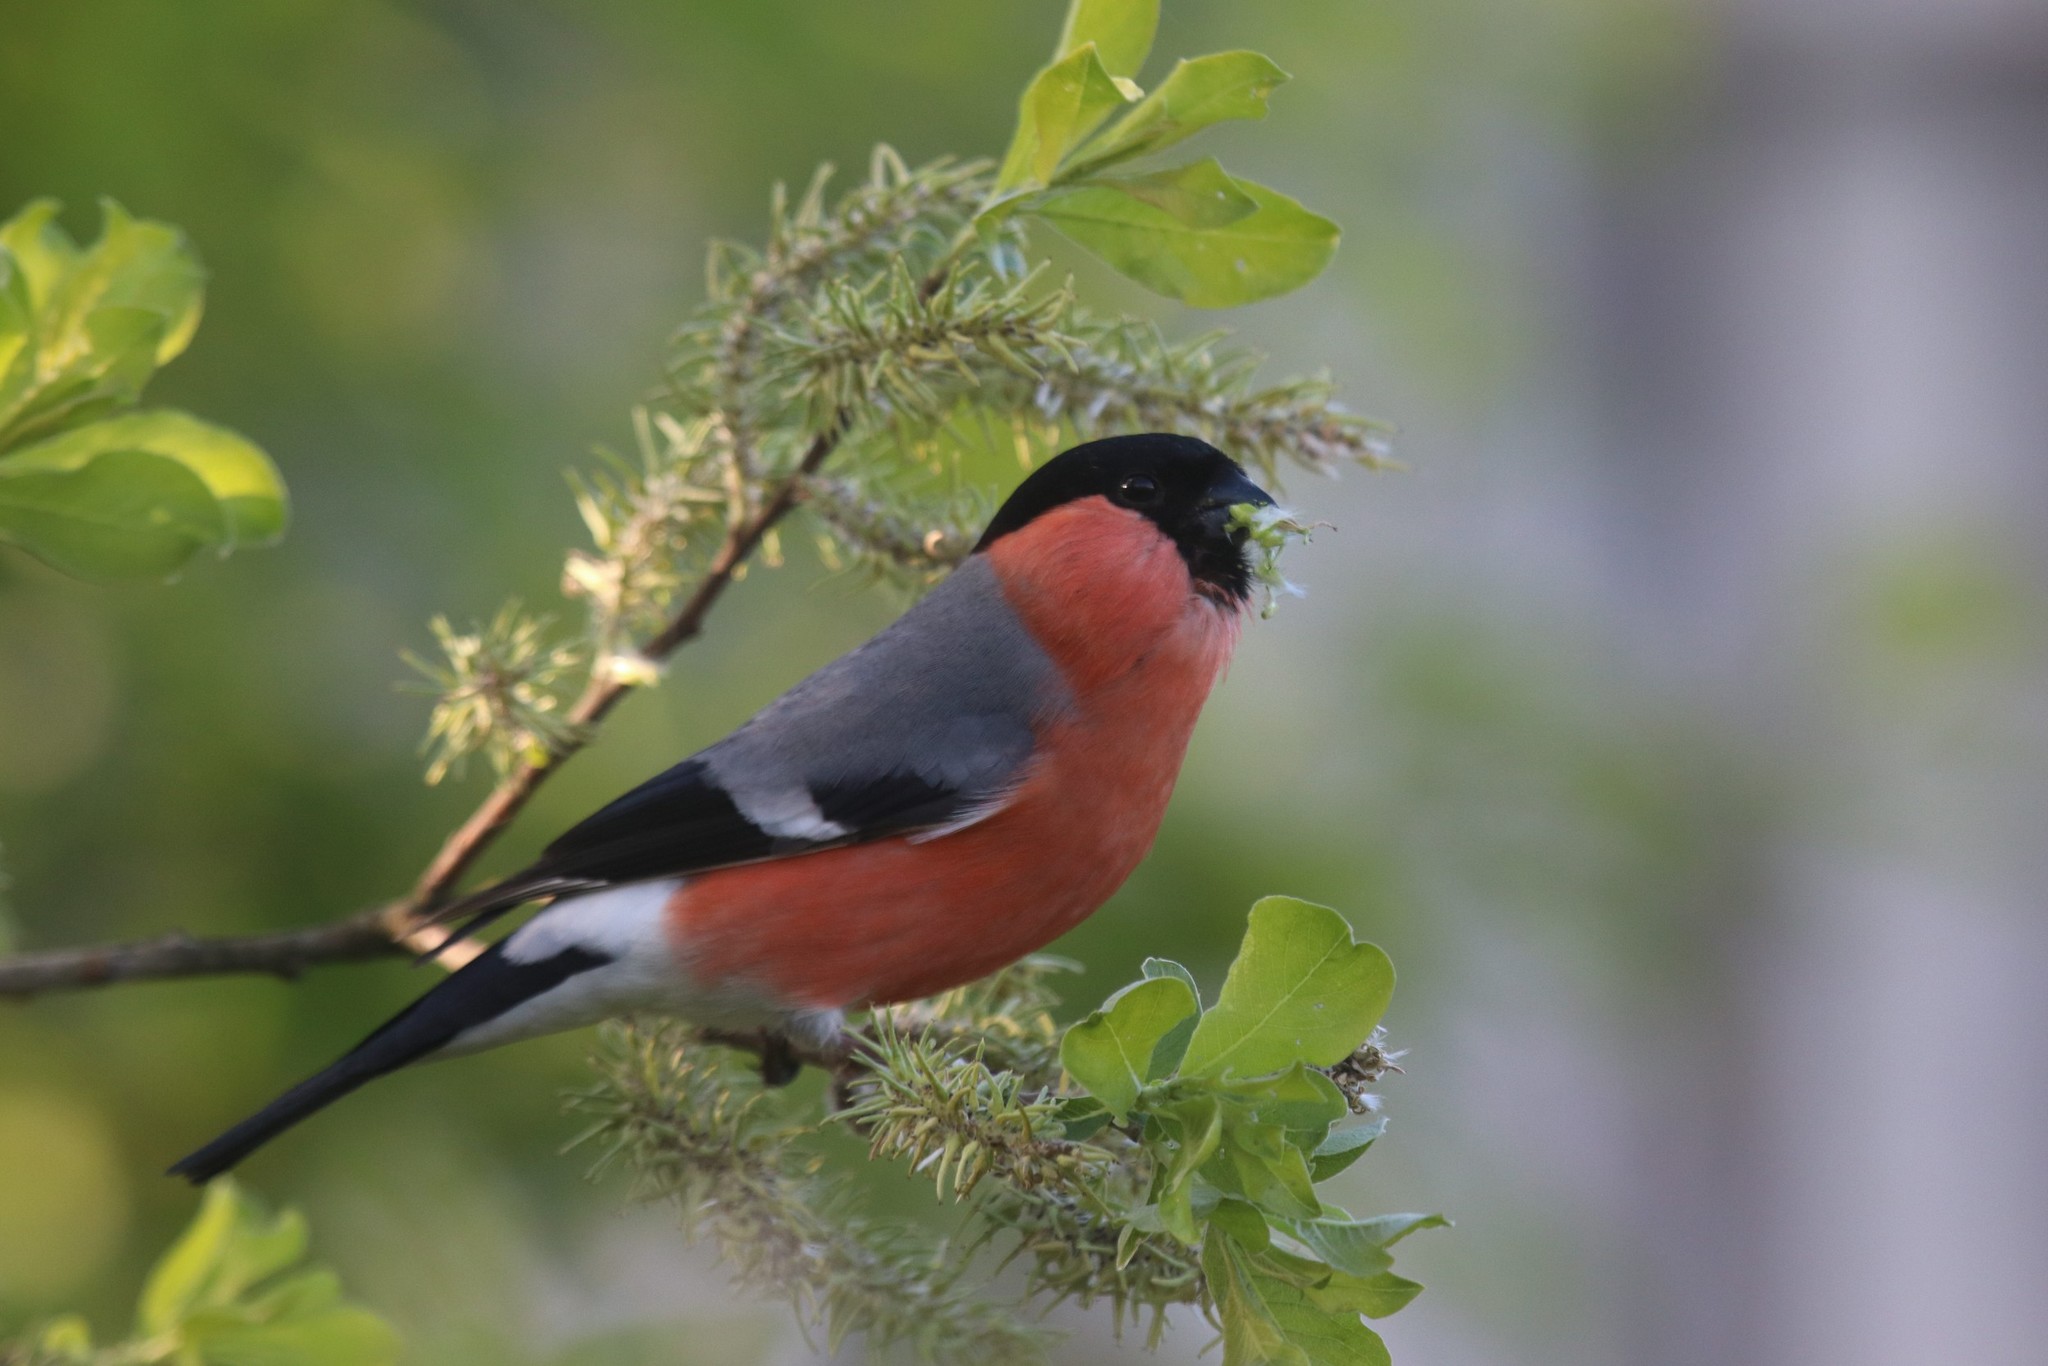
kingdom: Animalia
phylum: Chordata
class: Aves
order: Passeriformes
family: Fringillidae
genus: Pyrrhula
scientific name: Pyrrhula pyrrhula
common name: Eurasian bullfinch
